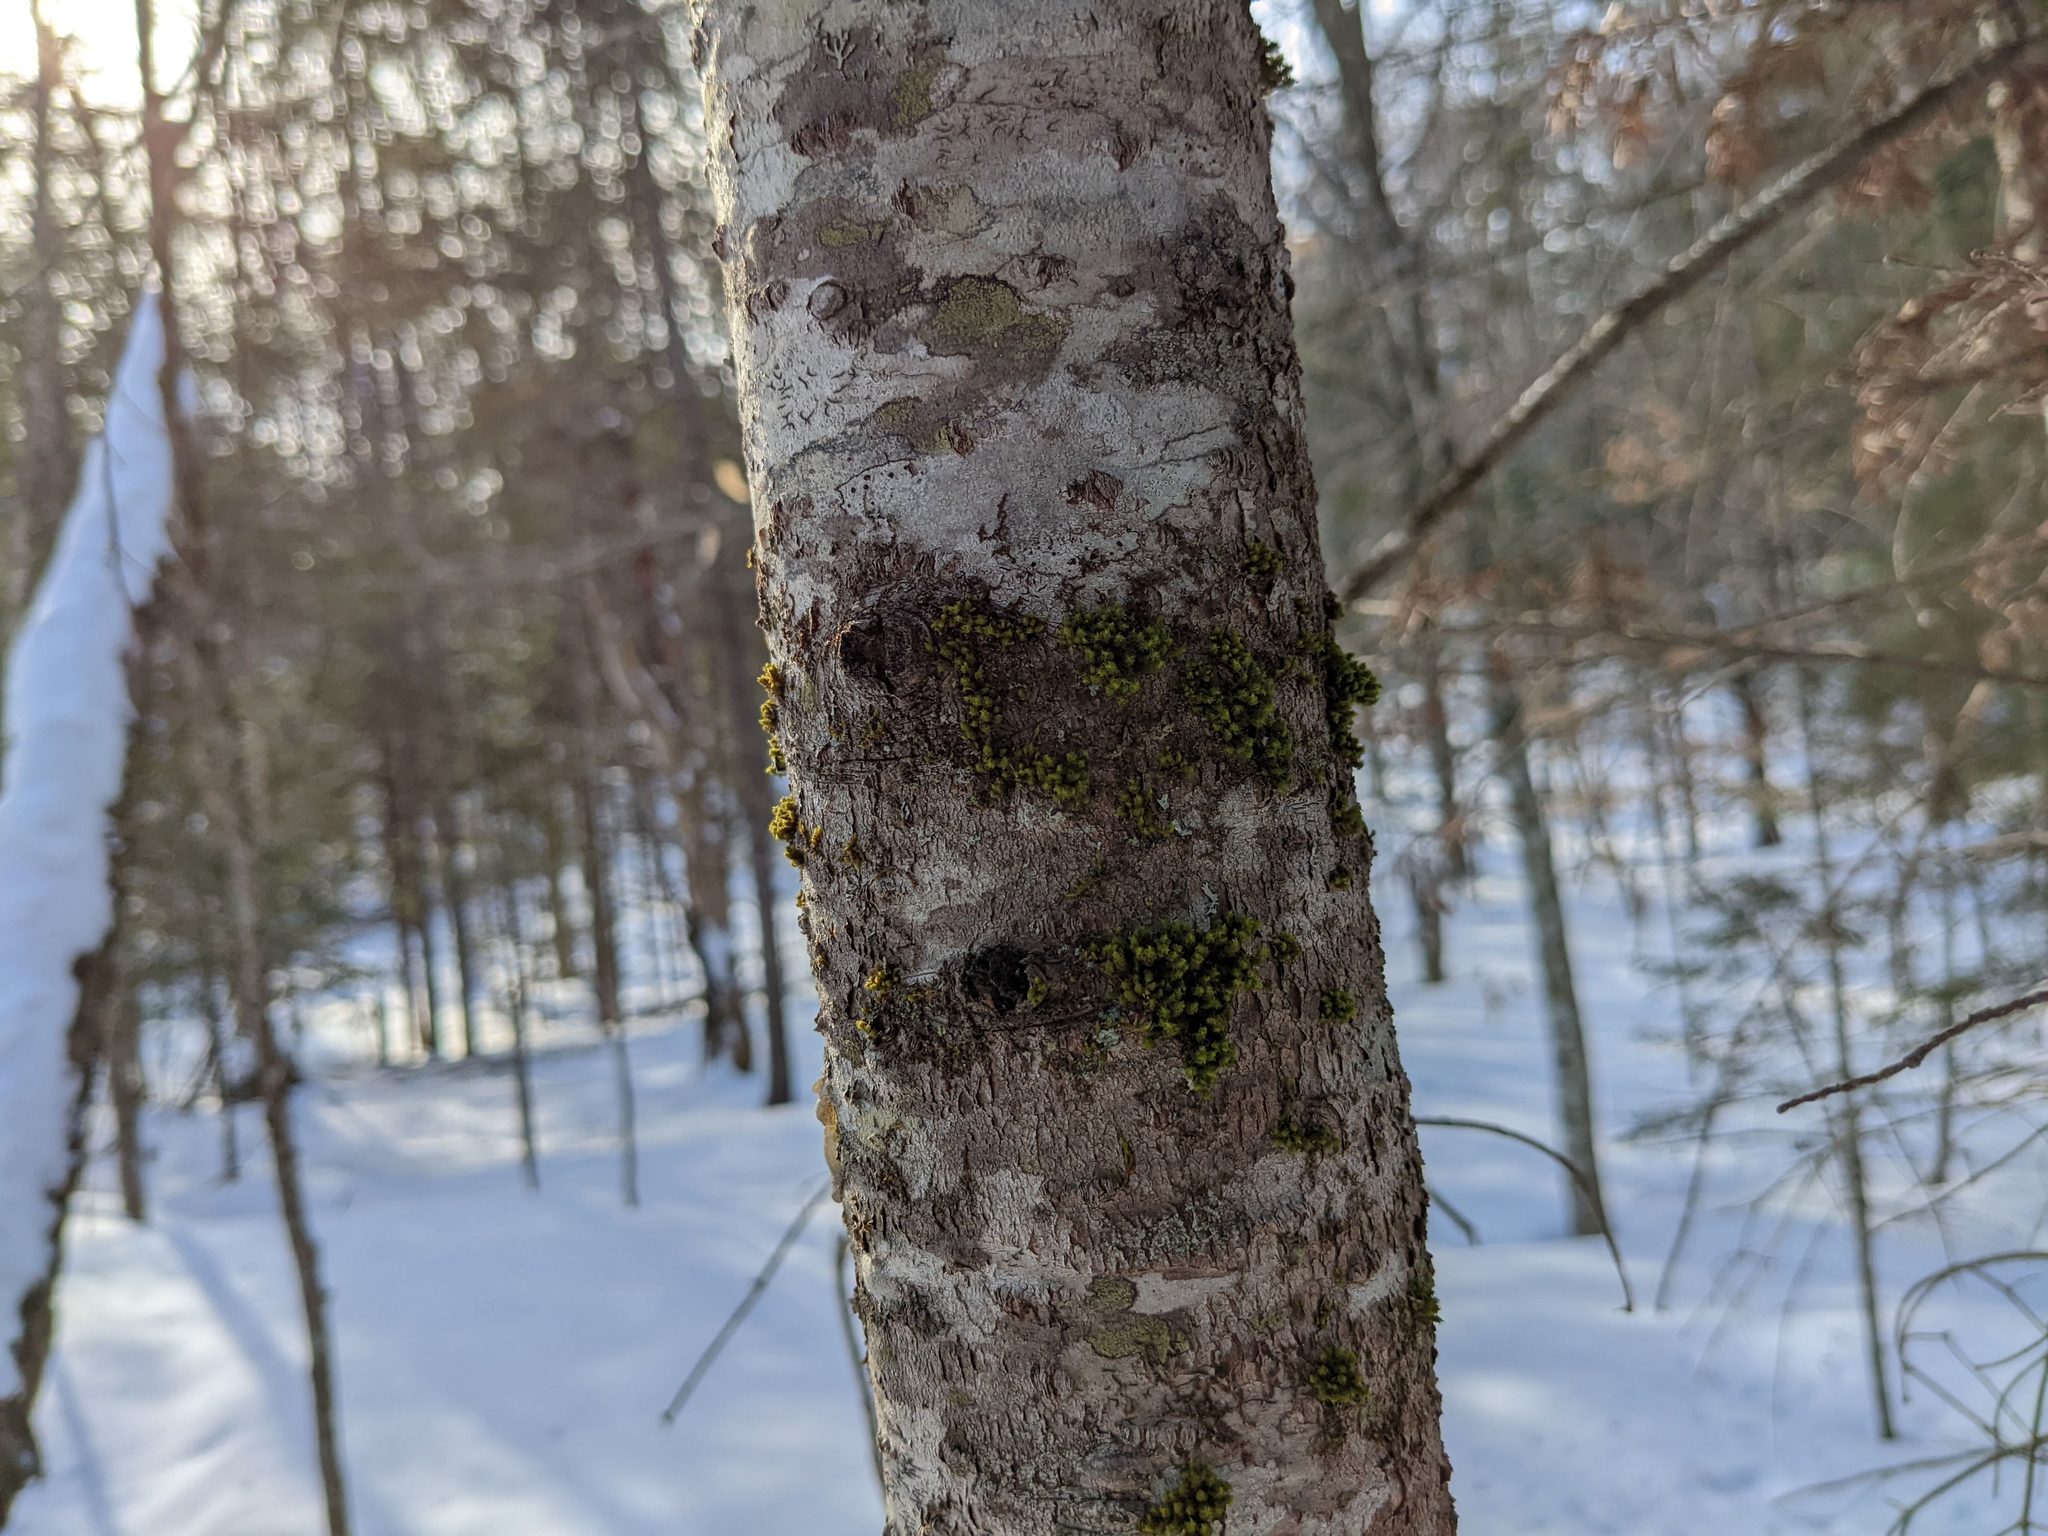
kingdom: Plantae
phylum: Bryophyta
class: Bryopsida
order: Orthotrichales
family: Orthotrichaceae
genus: Ulota
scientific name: Ulota crispa
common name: Crisped pincushion moss
